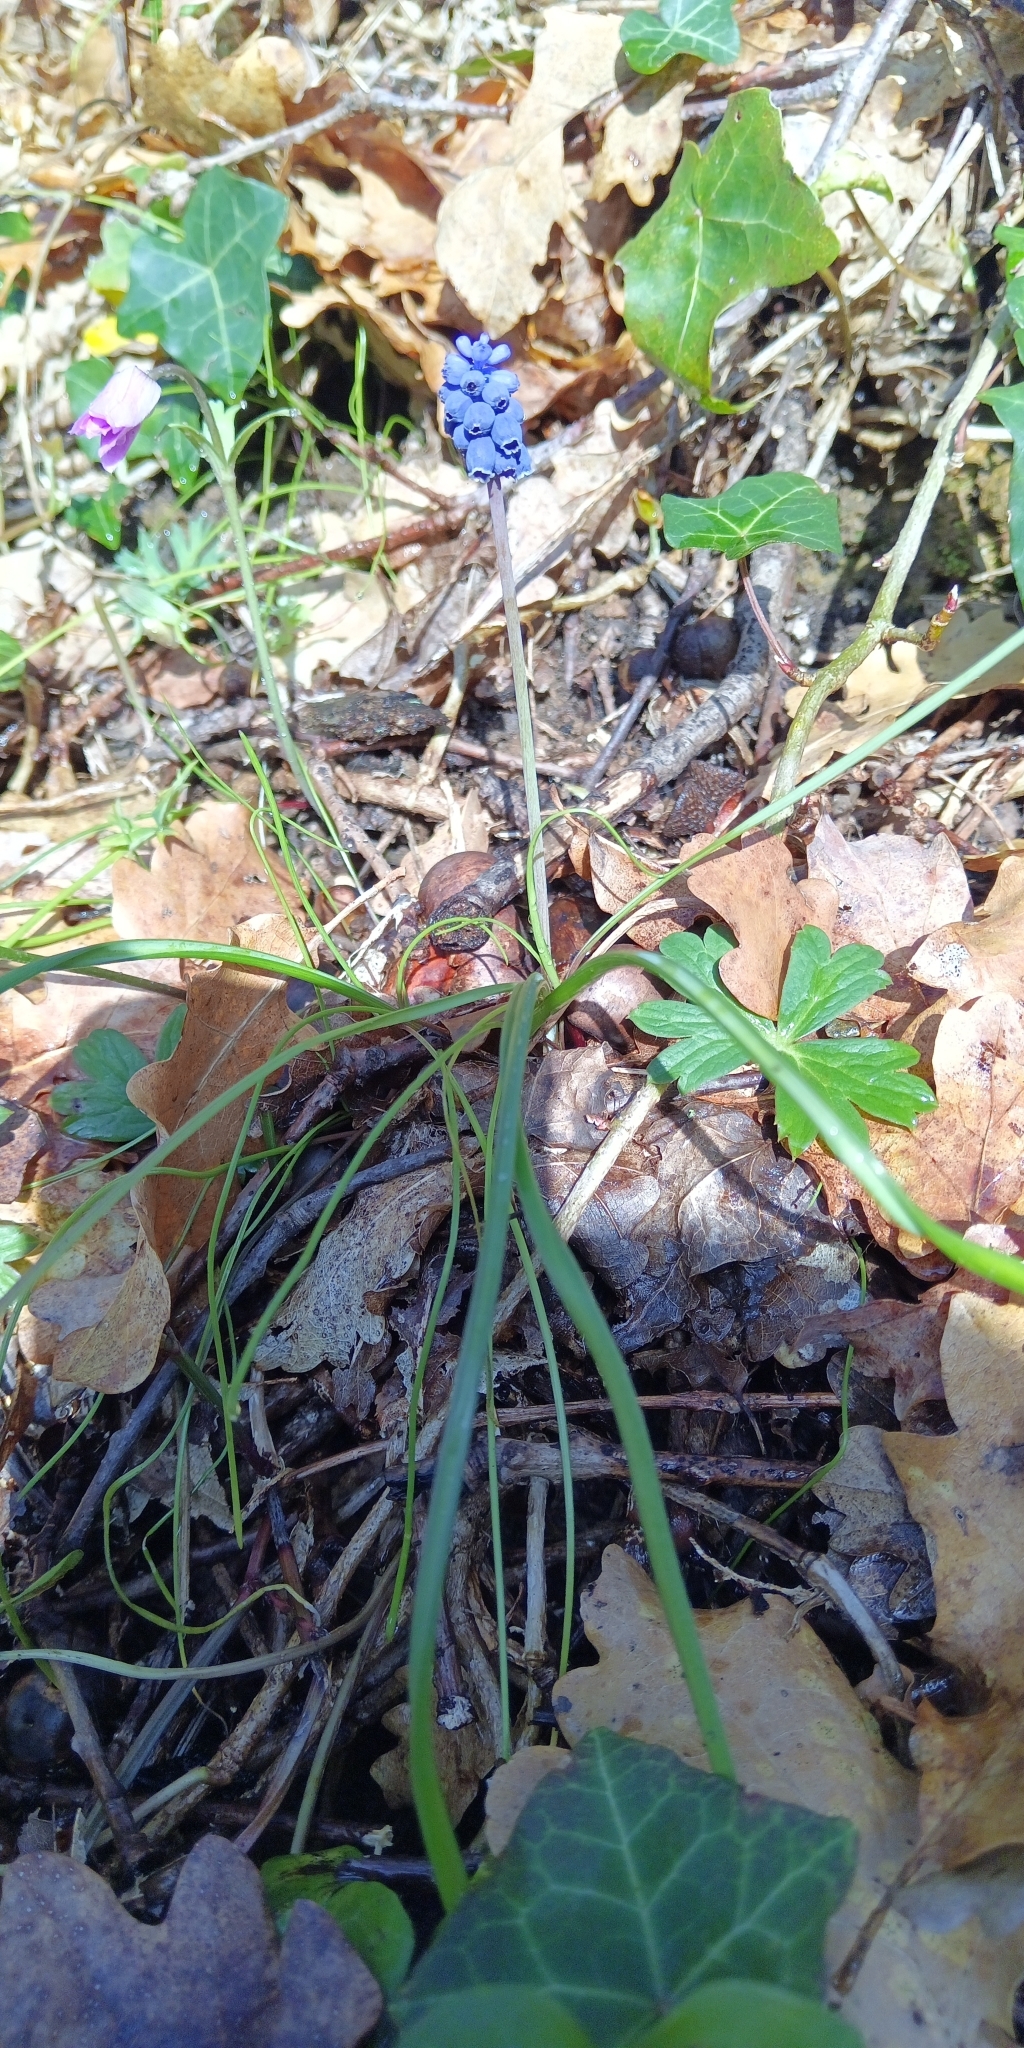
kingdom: Plantae
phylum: Tracheophyta
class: Liliopsida
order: Asparagales
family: Asparagaceae
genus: Muscari
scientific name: Muscari neglectum
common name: Grape-hyacinth
